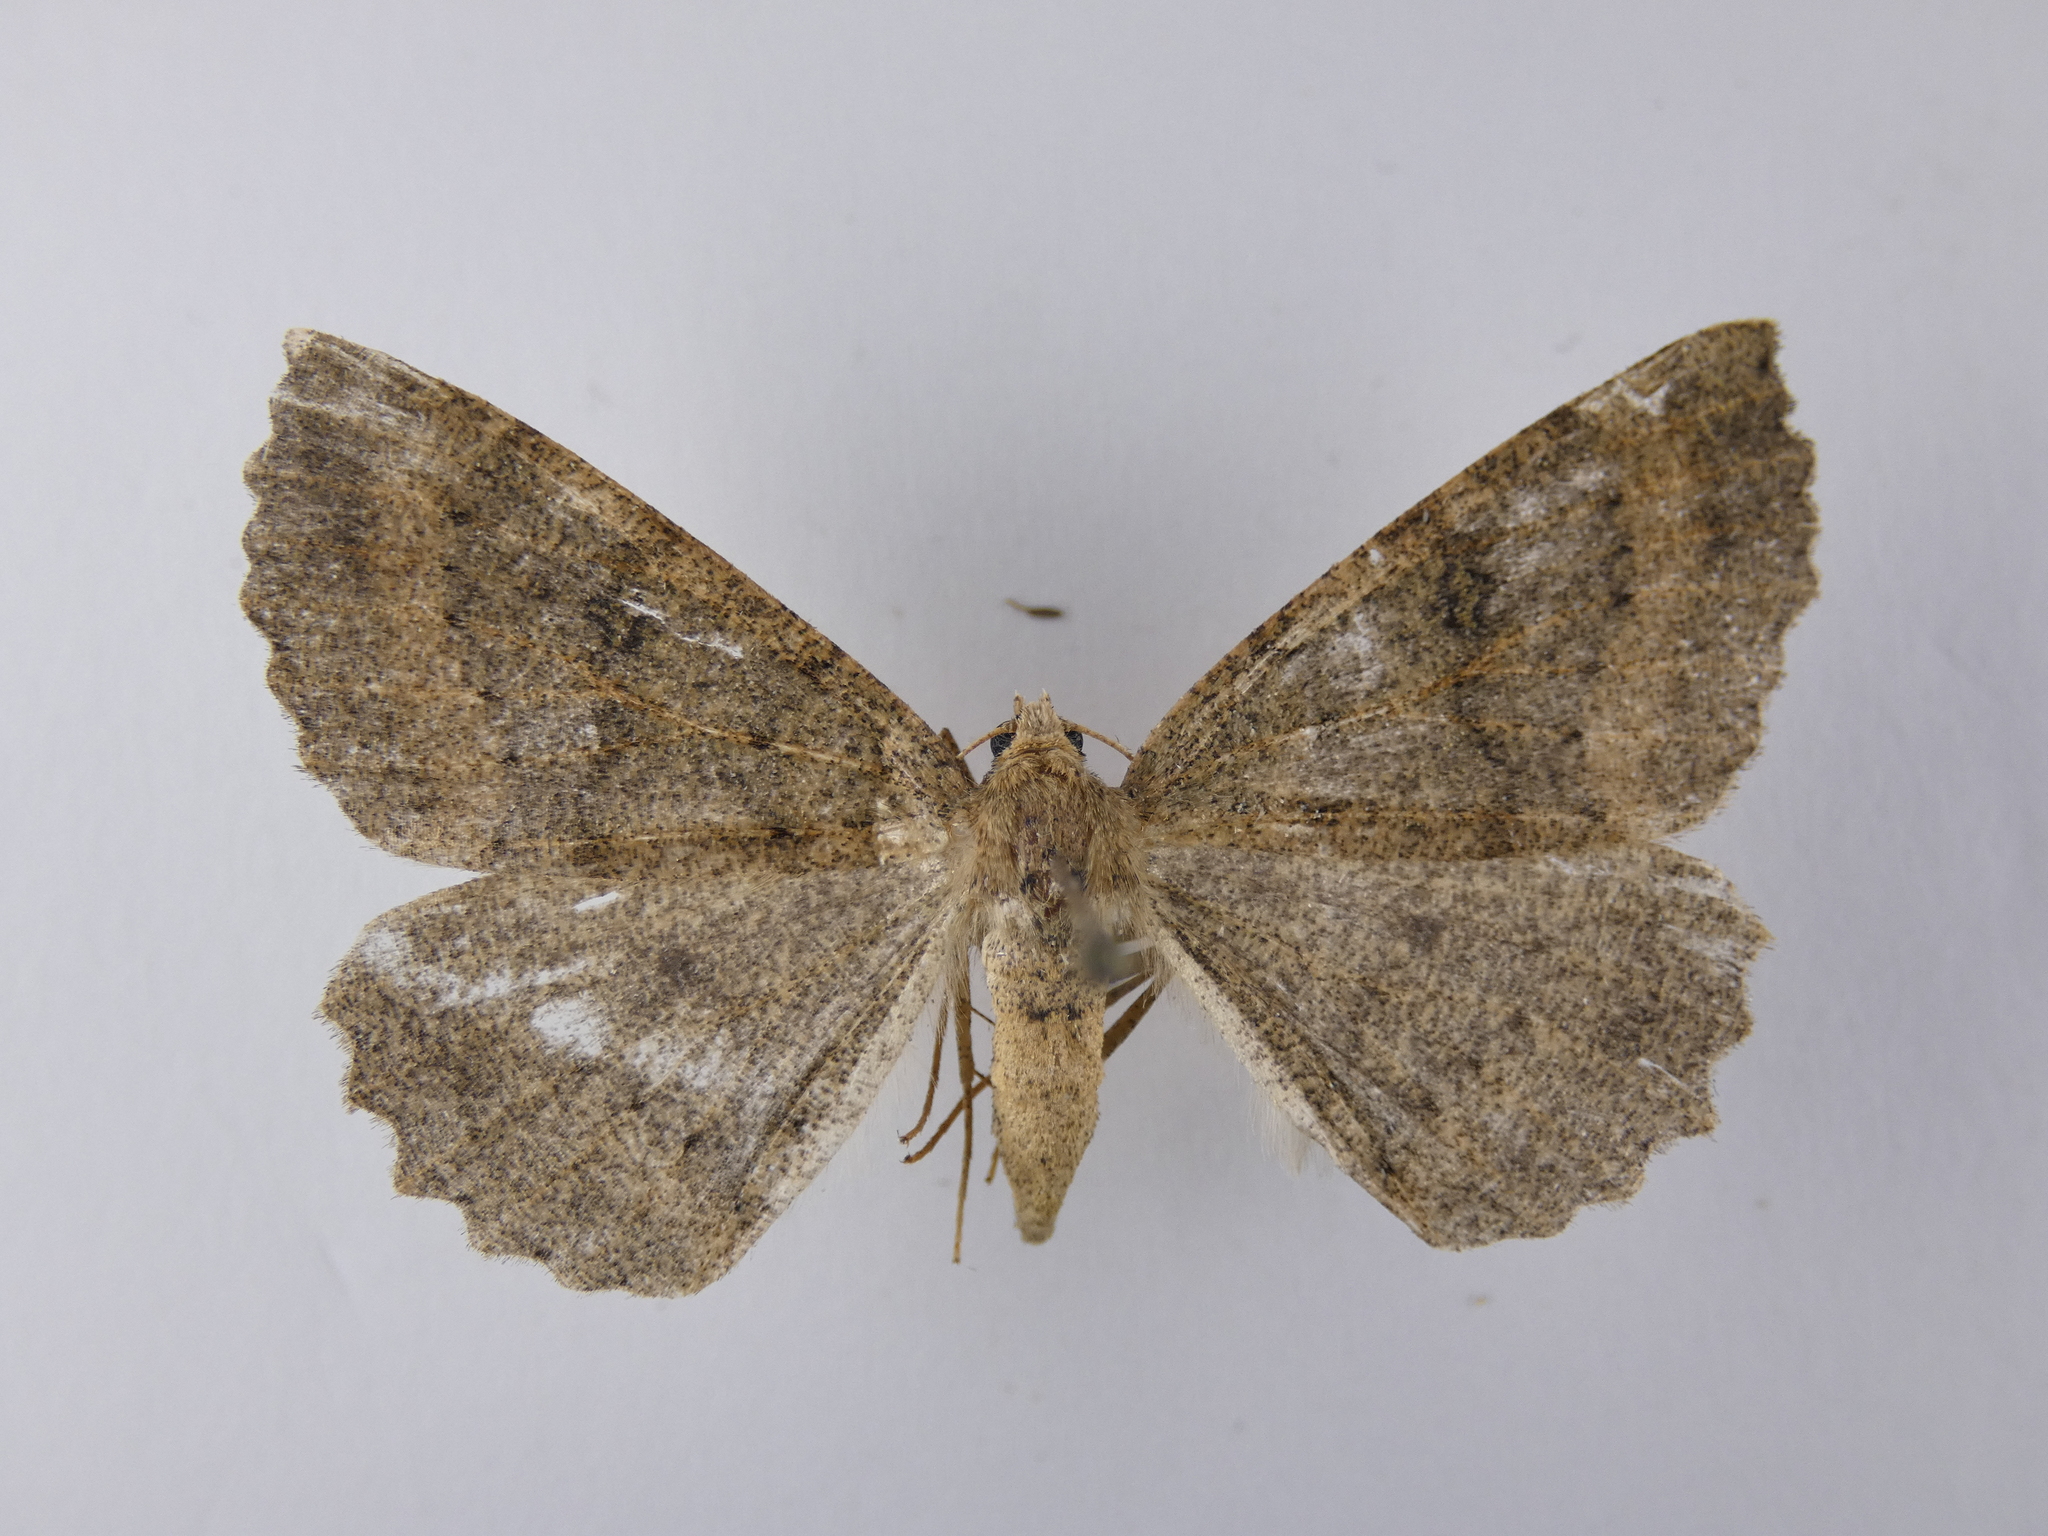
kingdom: Animalia
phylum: Arthropoda
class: Insecta
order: Lepidoptera
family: Geometridae
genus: Cleora
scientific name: Cleora scriptaria
